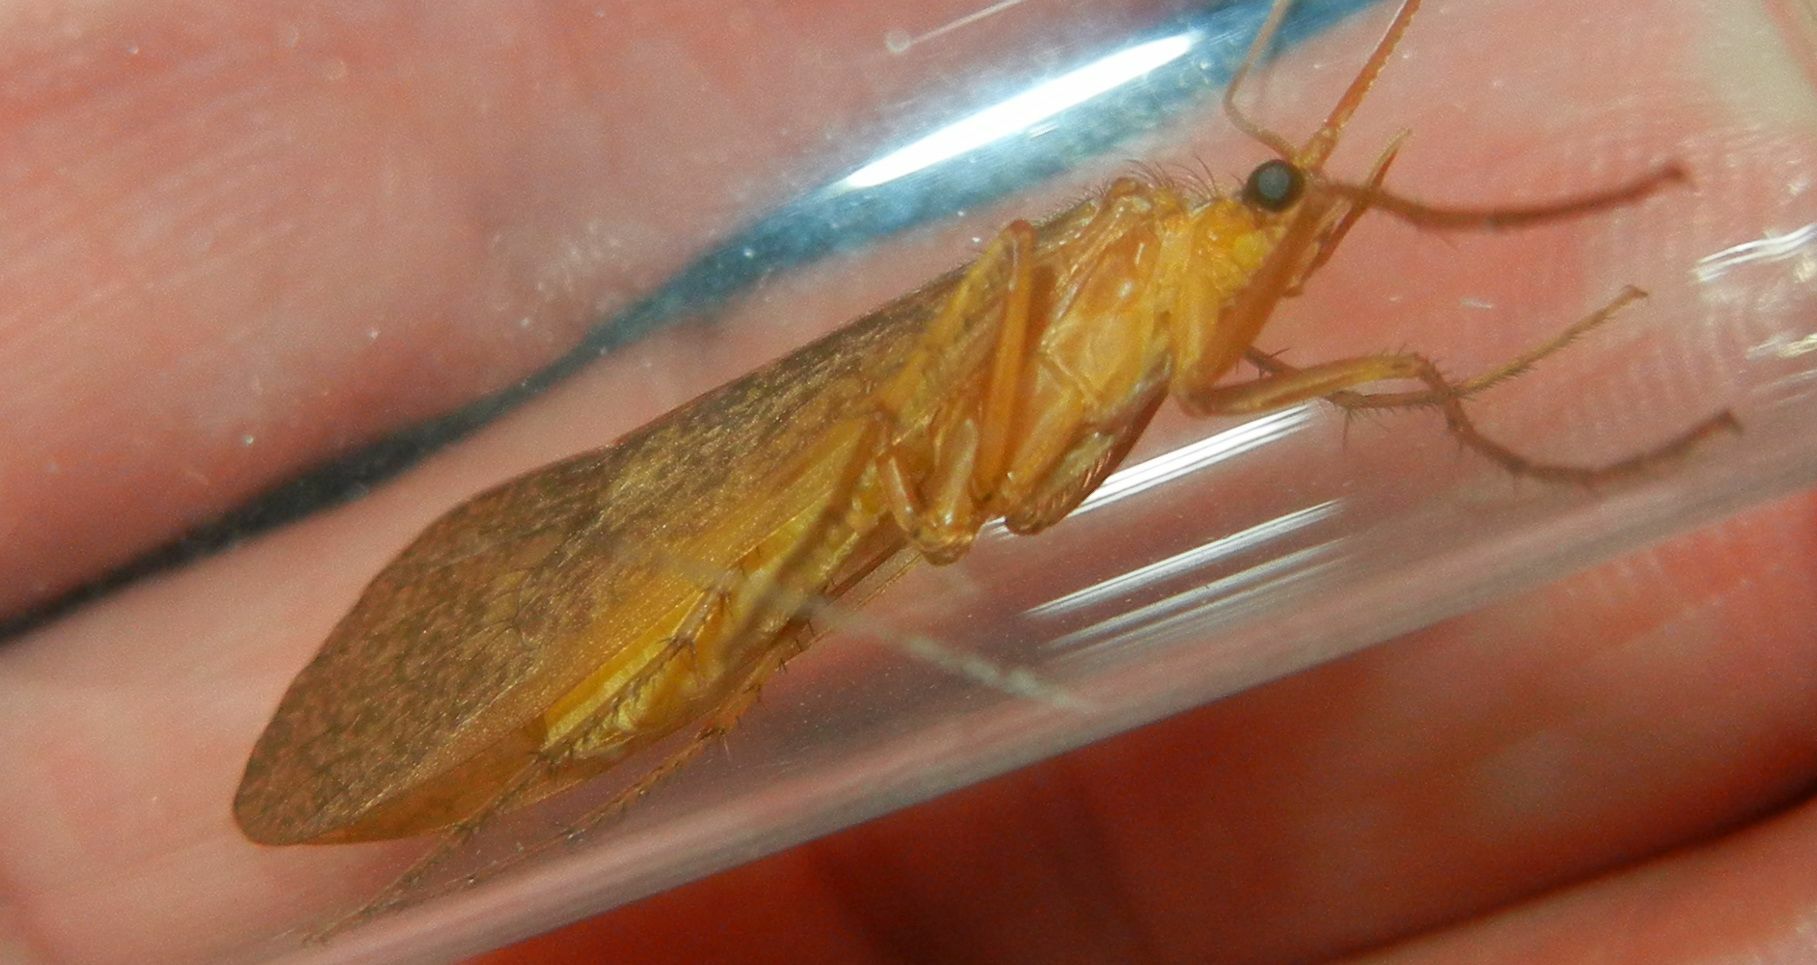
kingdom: Animalia
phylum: Arthropoda
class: Insecta
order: Trichoptera
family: Limnephilidae
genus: Stenophylax
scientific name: Stenophylax permistus
